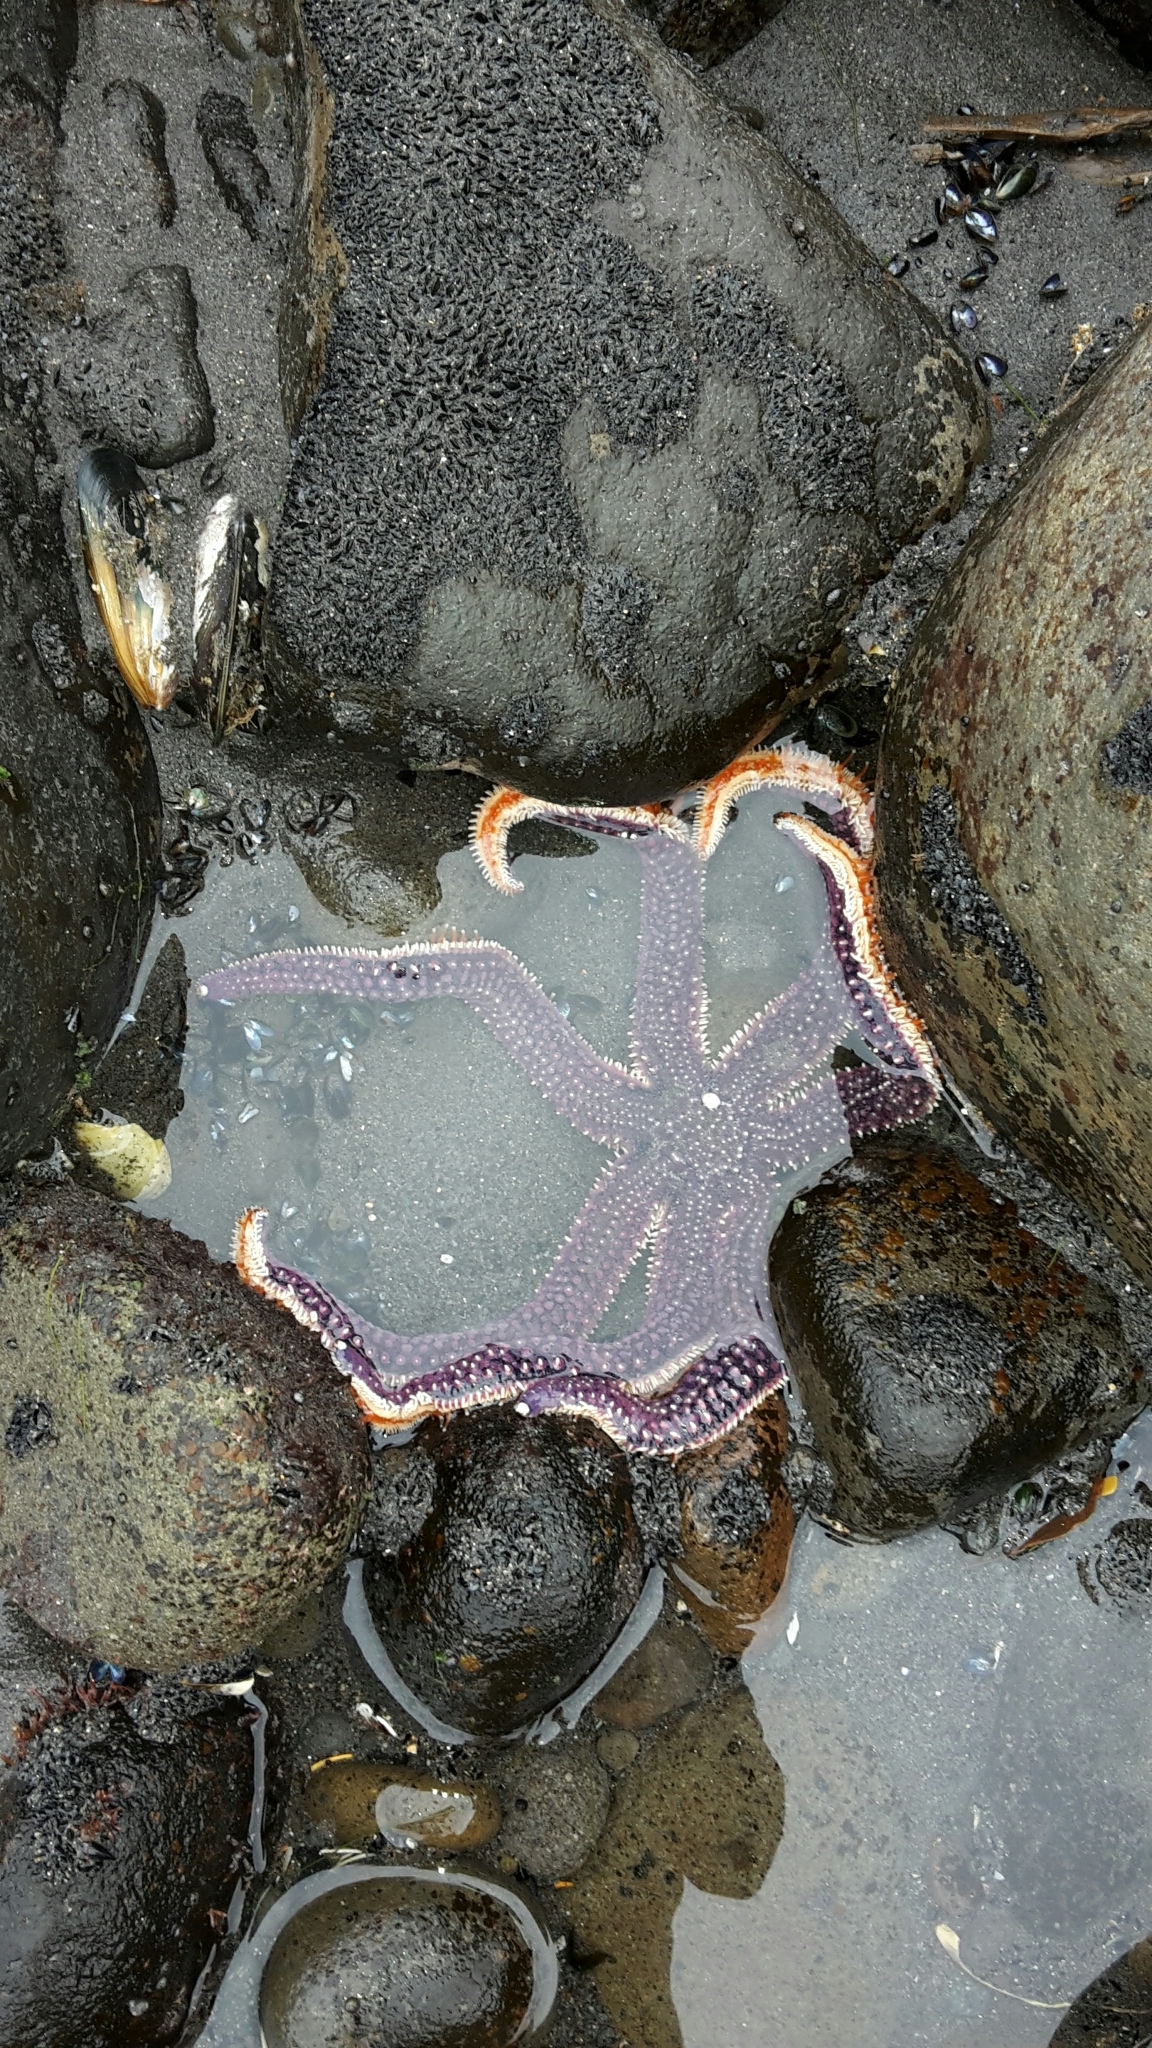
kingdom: Animalia
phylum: Echinodermata
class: Asteroidea
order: Forcipulatida
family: Asteriidae
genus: Astrostole
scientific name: Astrostole scabra
